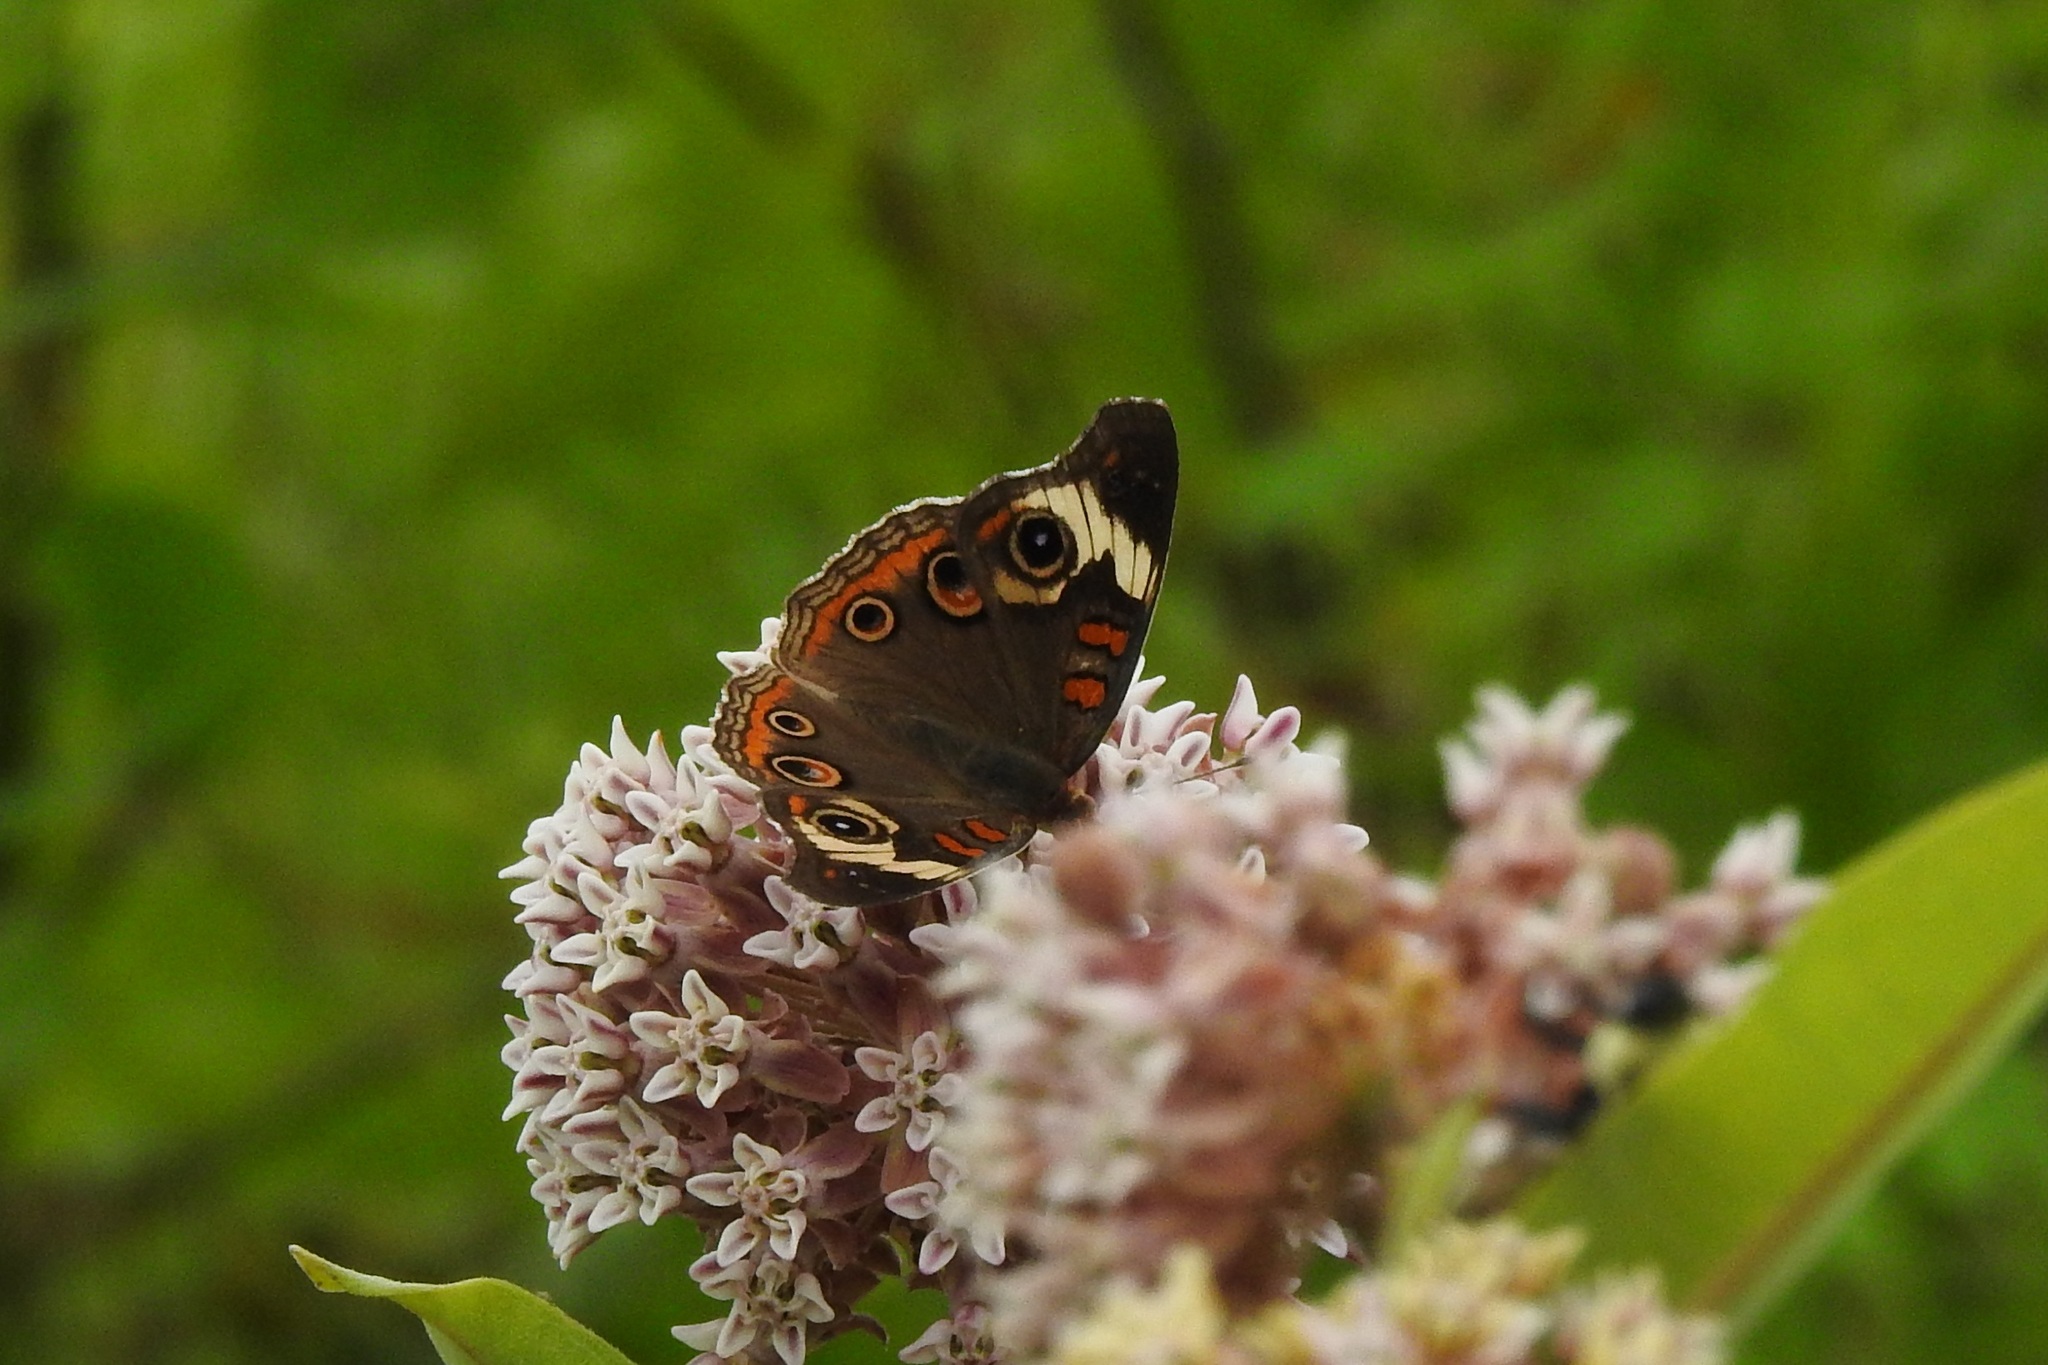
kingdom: Animalia
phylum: Arthropoda
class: Insecta
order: Lepidoptera
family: Nymphalidae
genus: Junonia
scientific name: Junonia coenia
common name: Common buckeye
